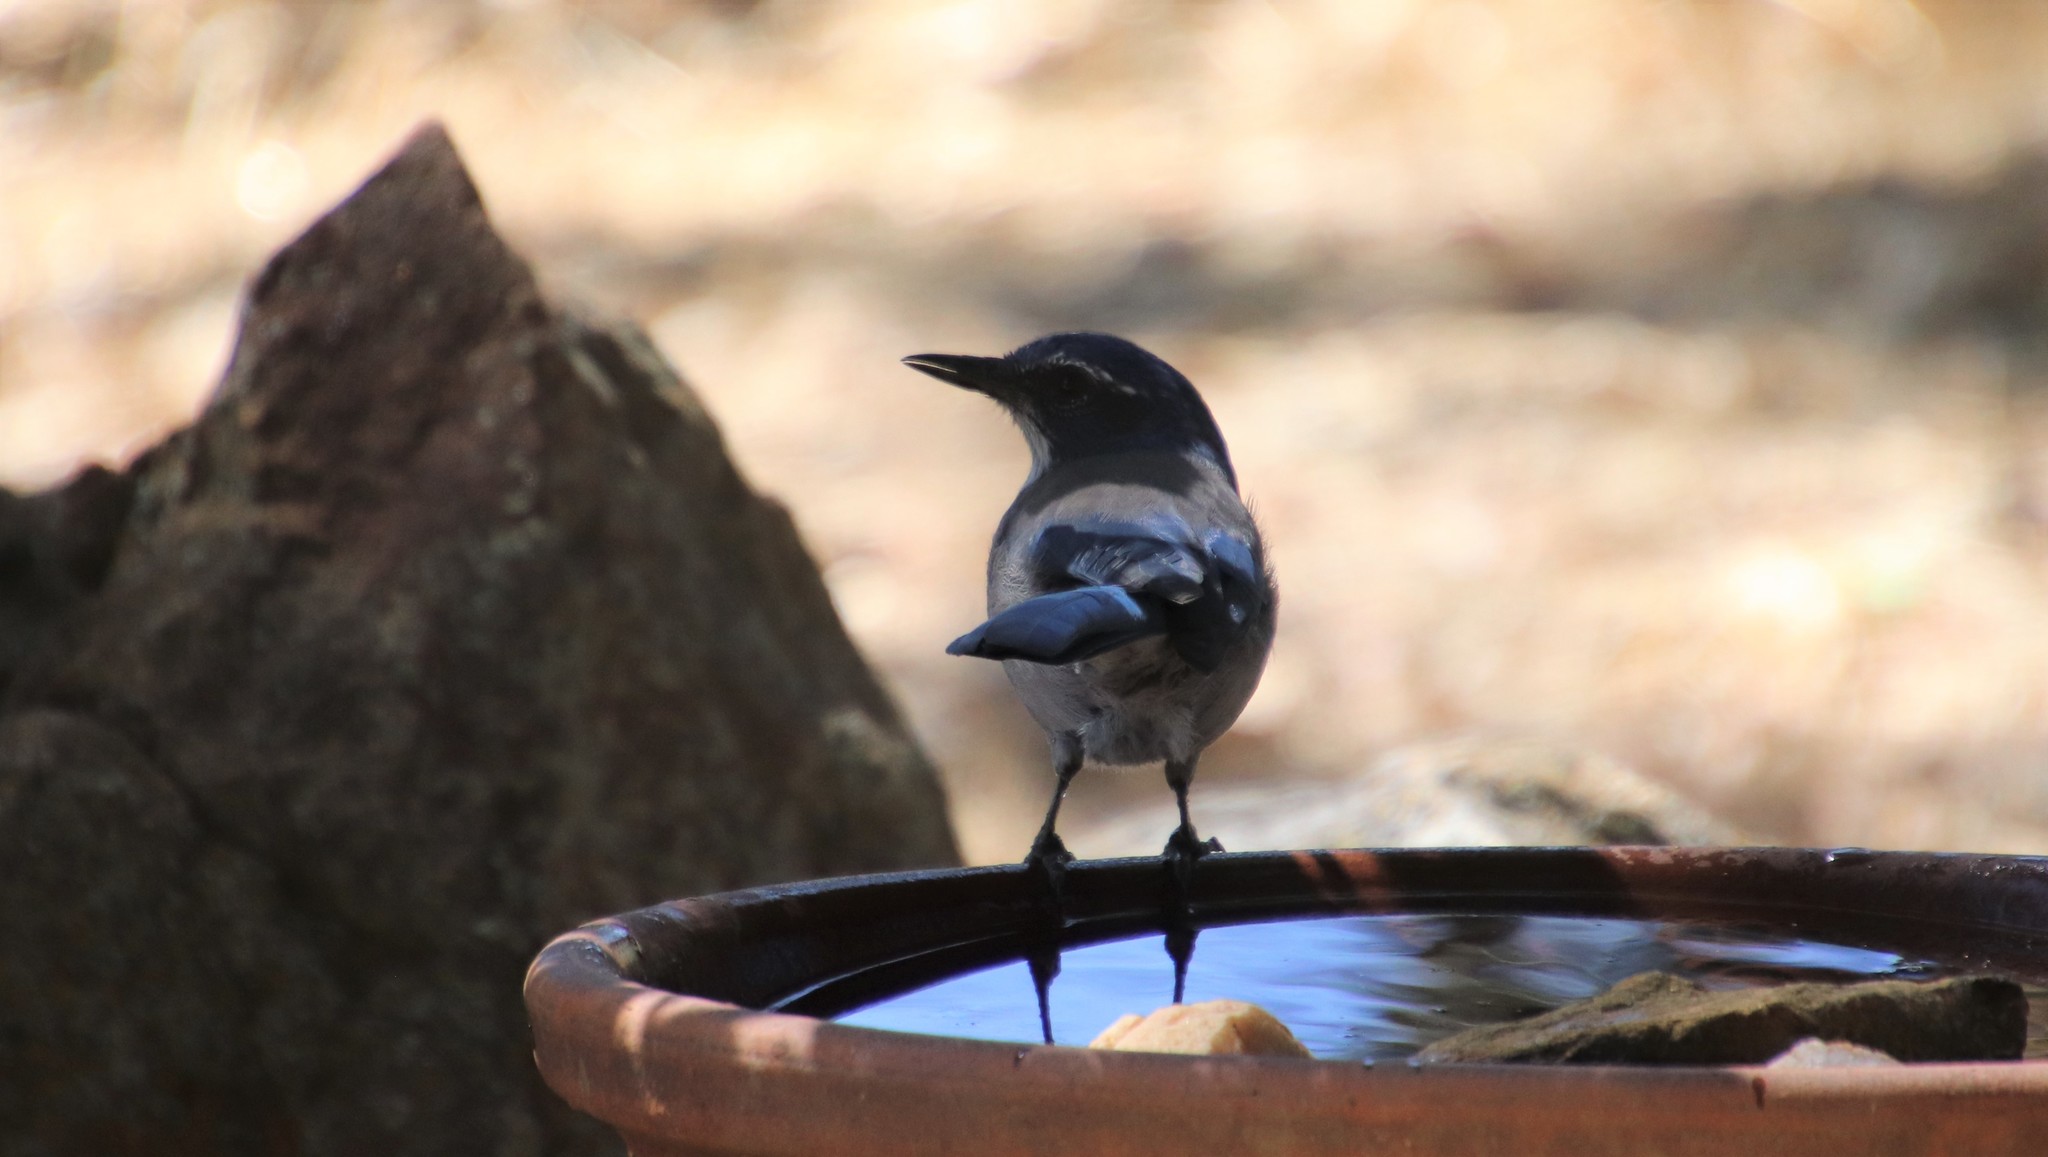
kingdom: Animalia
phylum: Chordata
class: Aves
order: Passeriformes
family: Corvidae
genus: Aphelocoma
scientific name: Aphelocoma californica
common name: California scrub-jay
